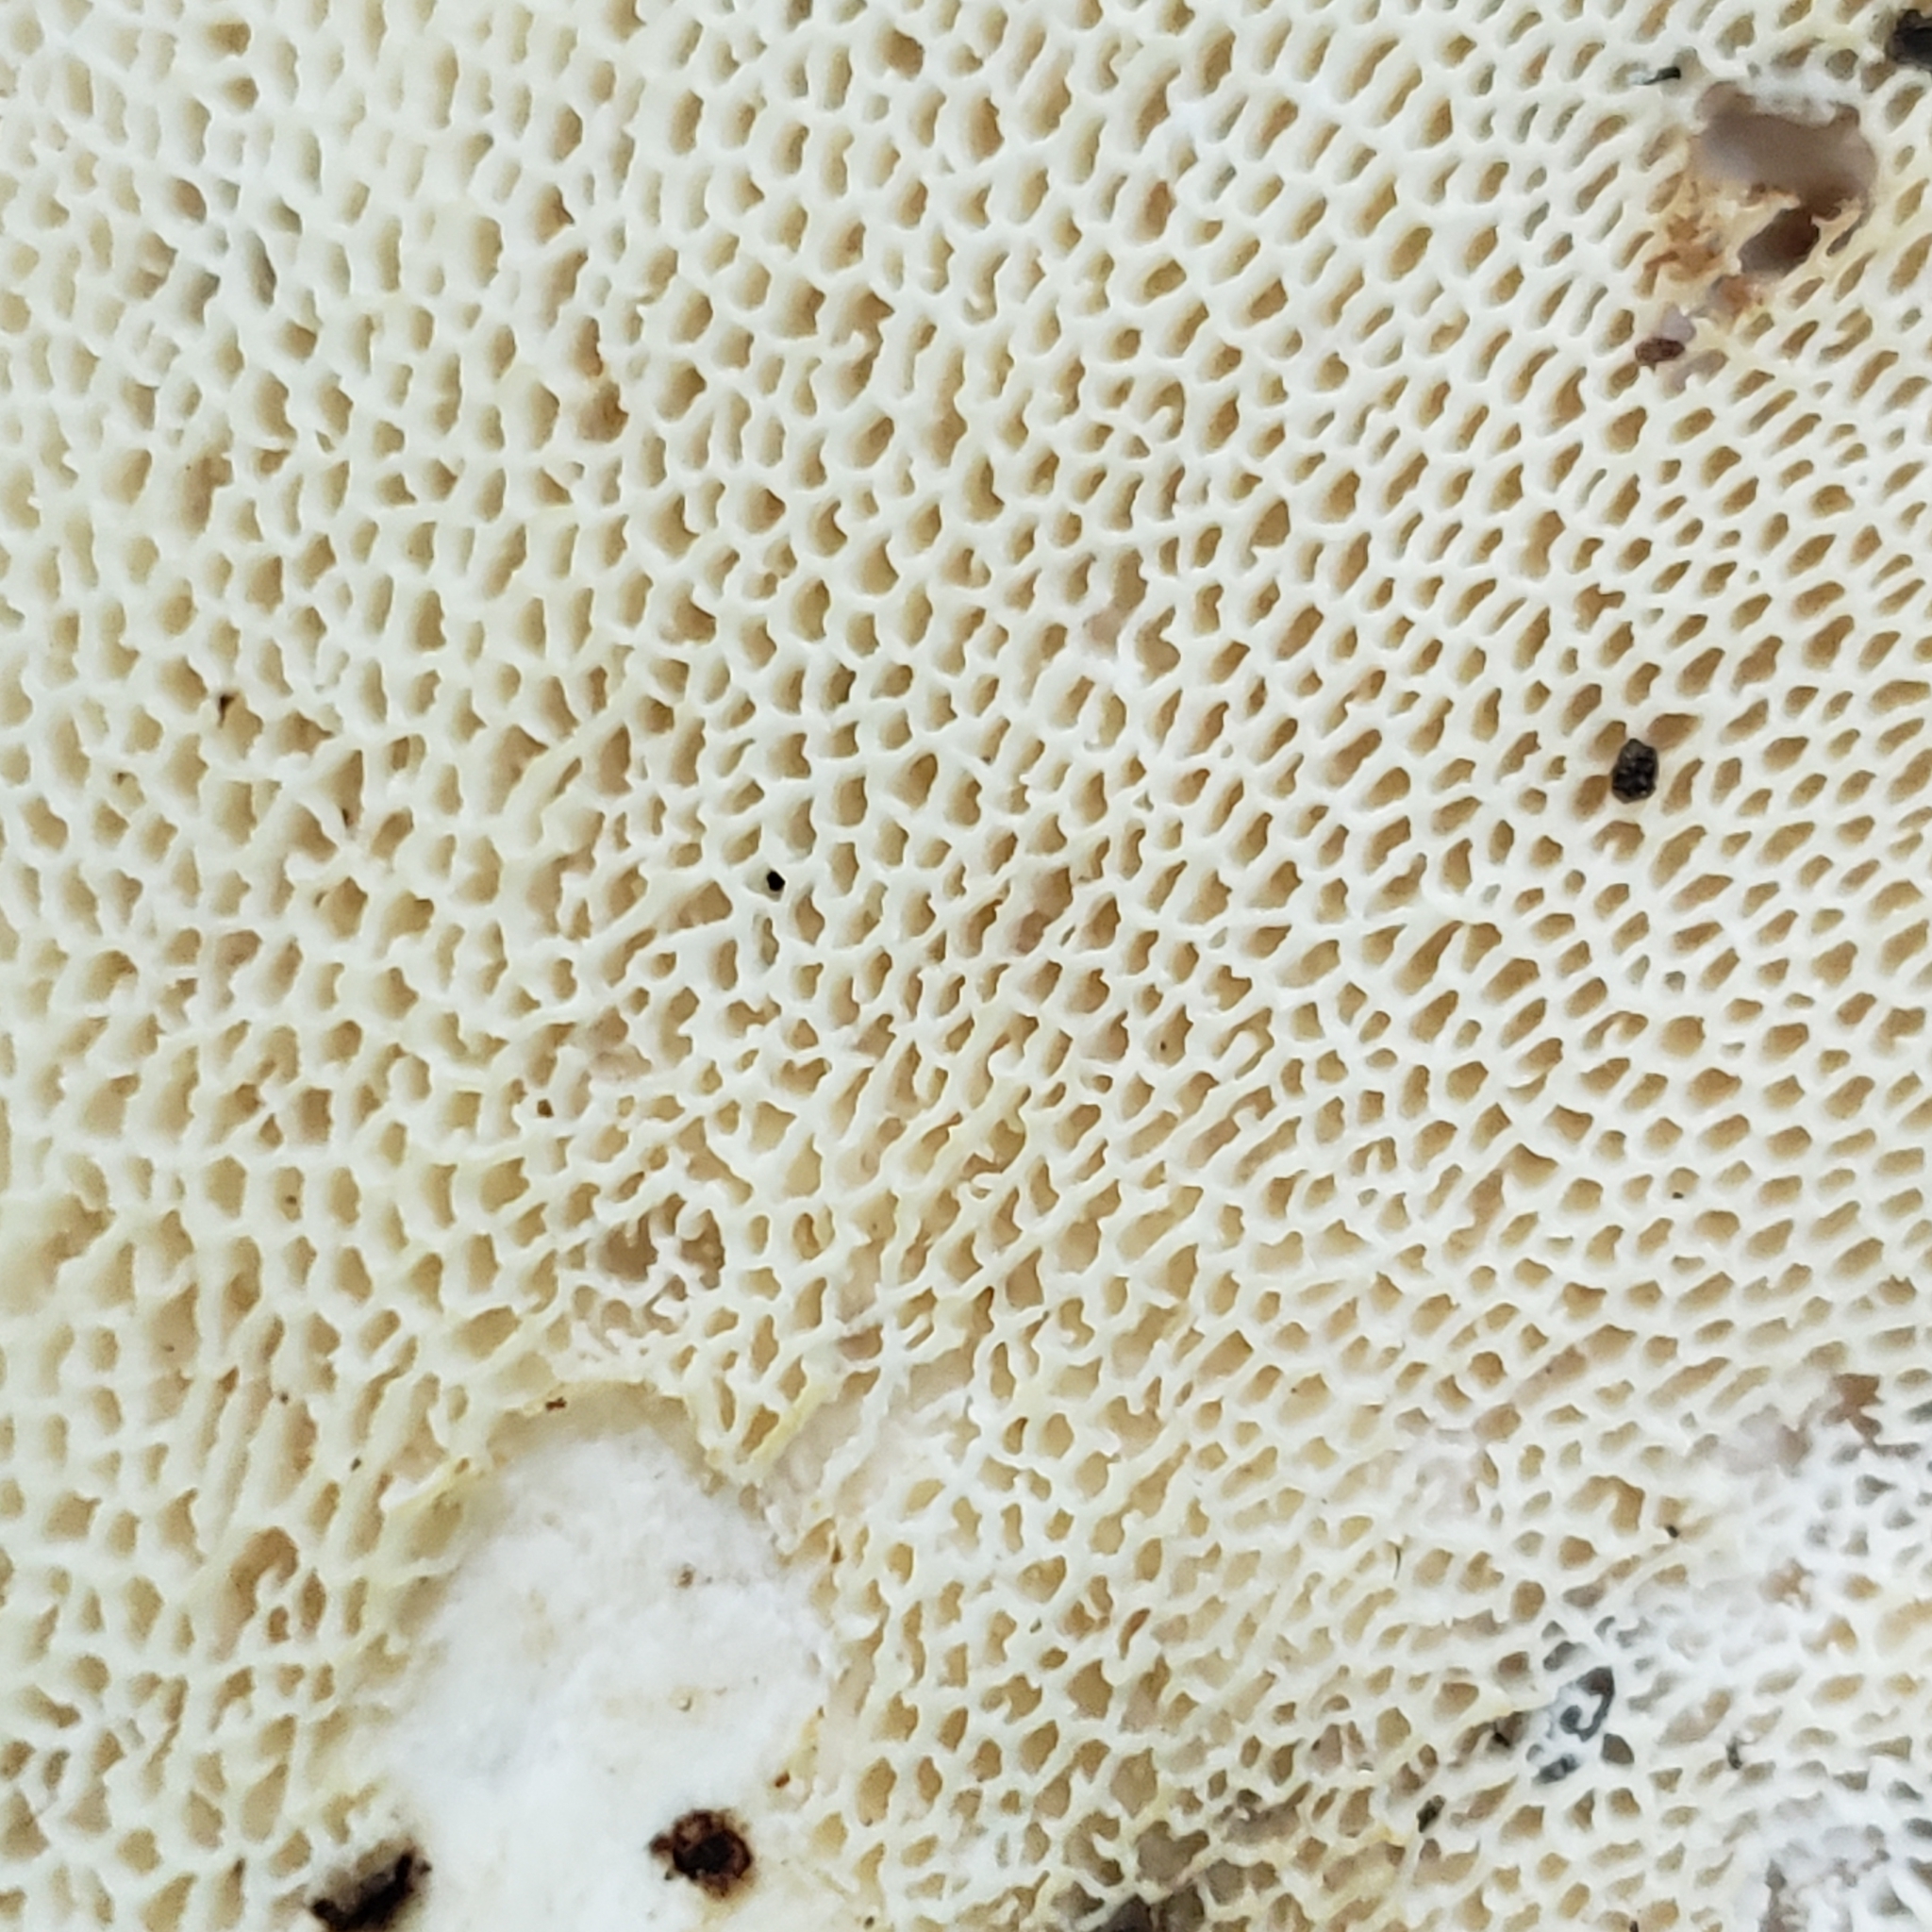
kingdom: Fungi
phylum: Basidiomycota
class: Agaricomycetes
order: Polyporales
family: Polyporaceae
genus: Cerioporus
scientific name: Cerioporus squamosus
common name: Dryad's saddle
